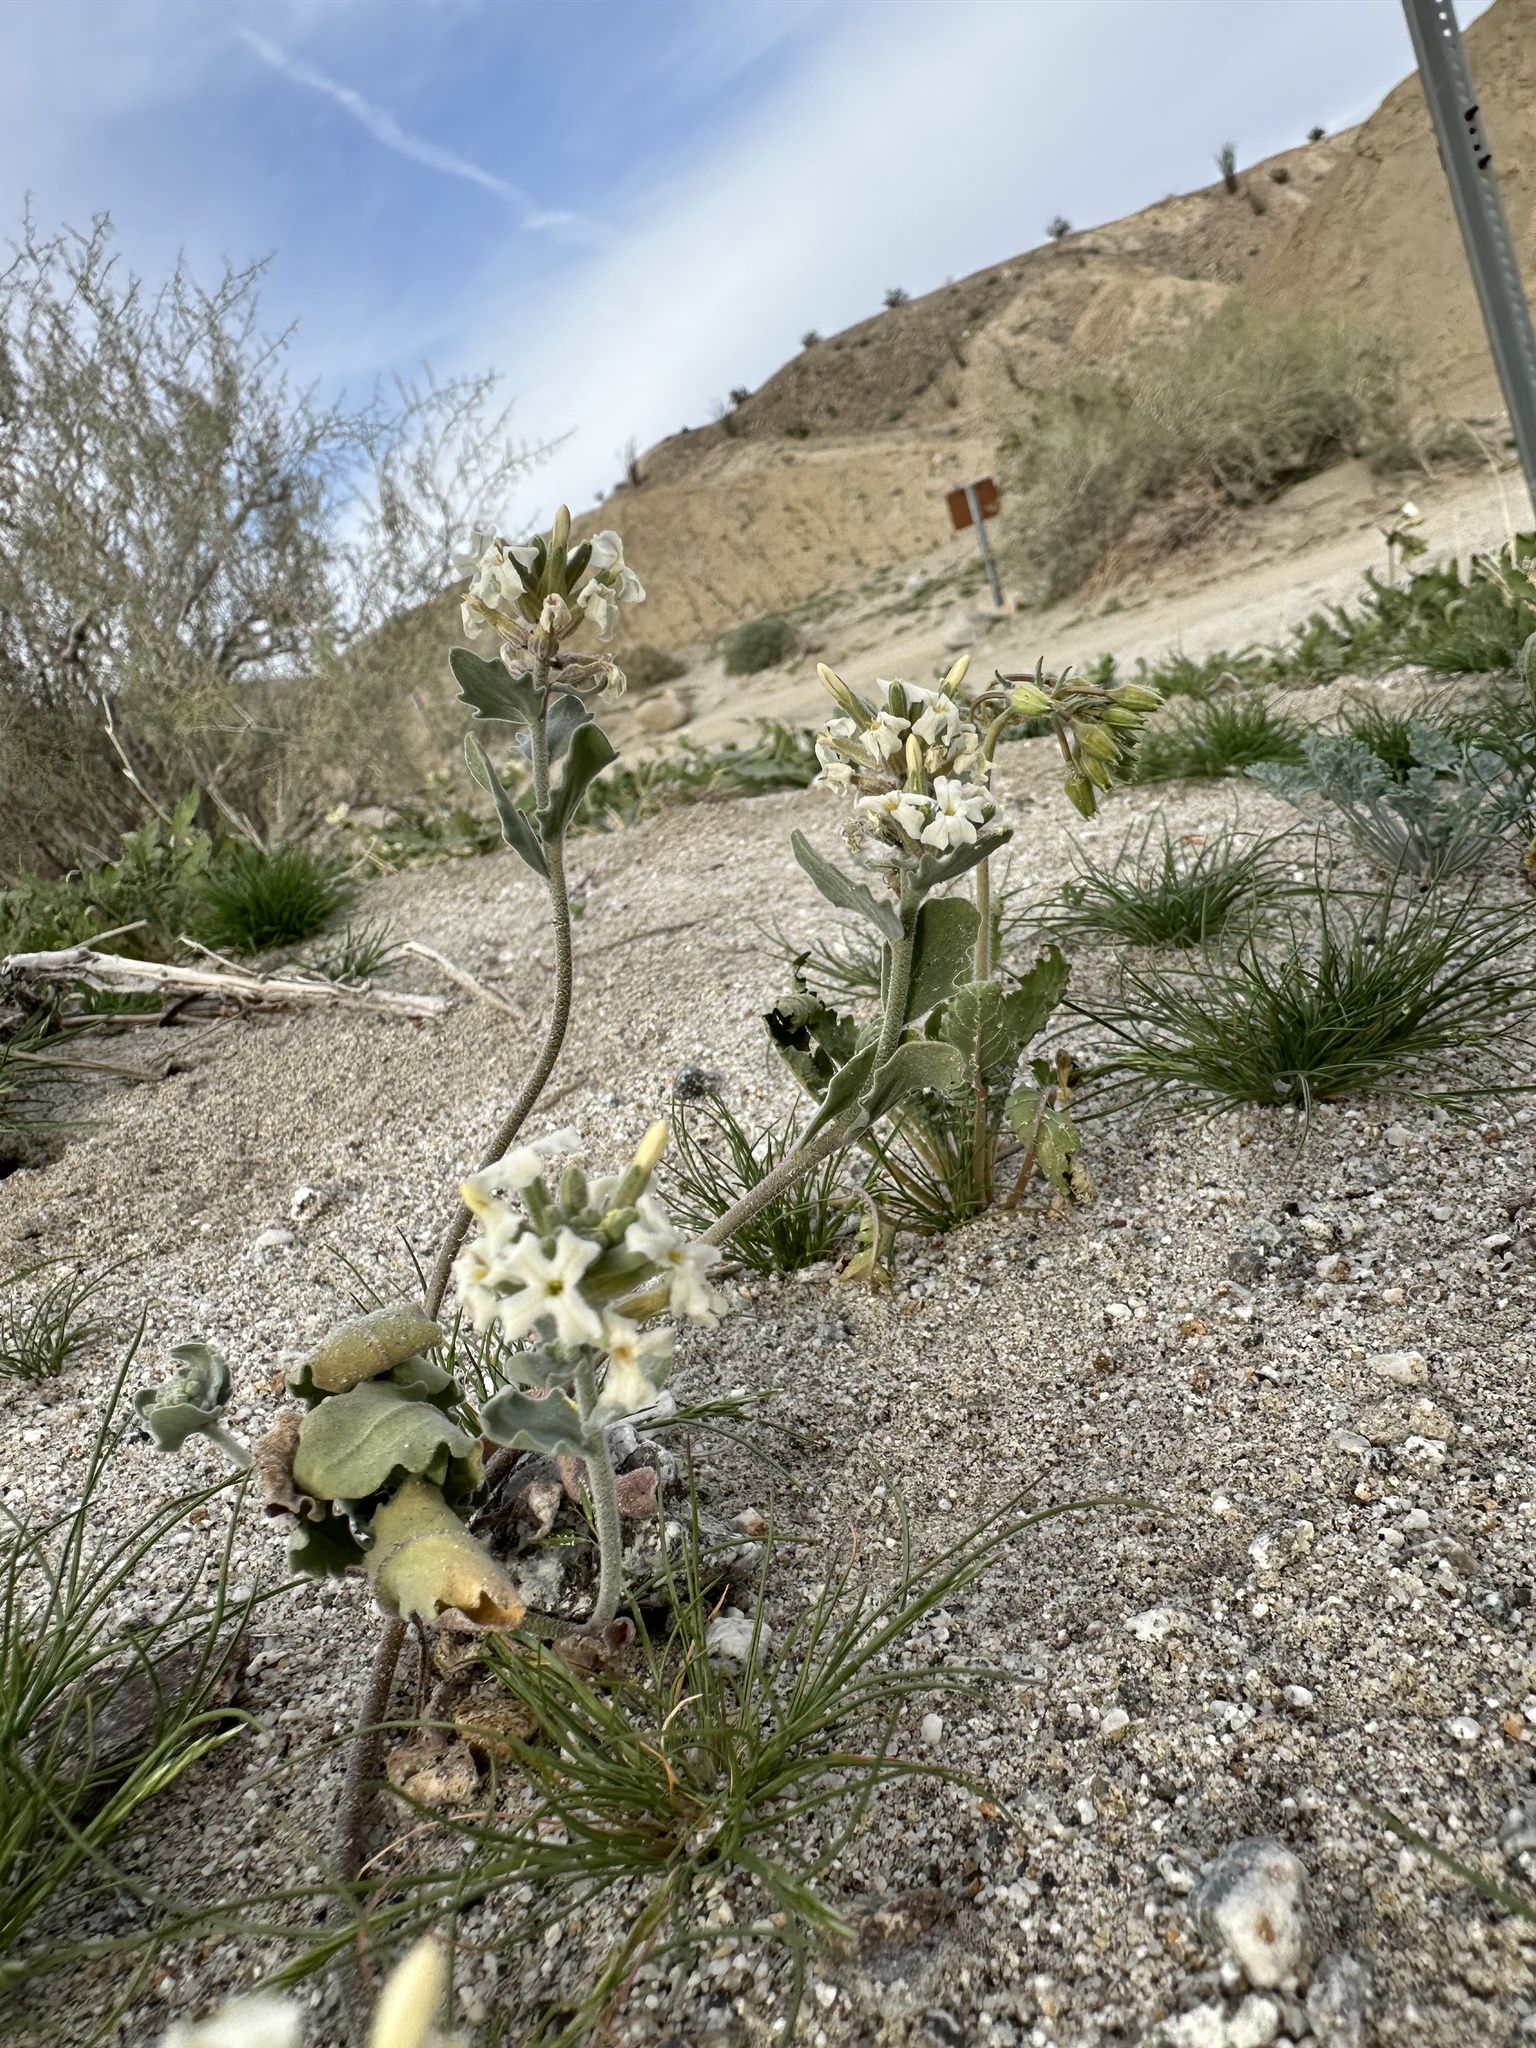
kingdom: Plantae
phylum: Tracheophyta
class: Magnoliopsida
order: Brassicales
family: Brassicaceae
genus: Dithyrea
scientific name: Dithyrea californica
